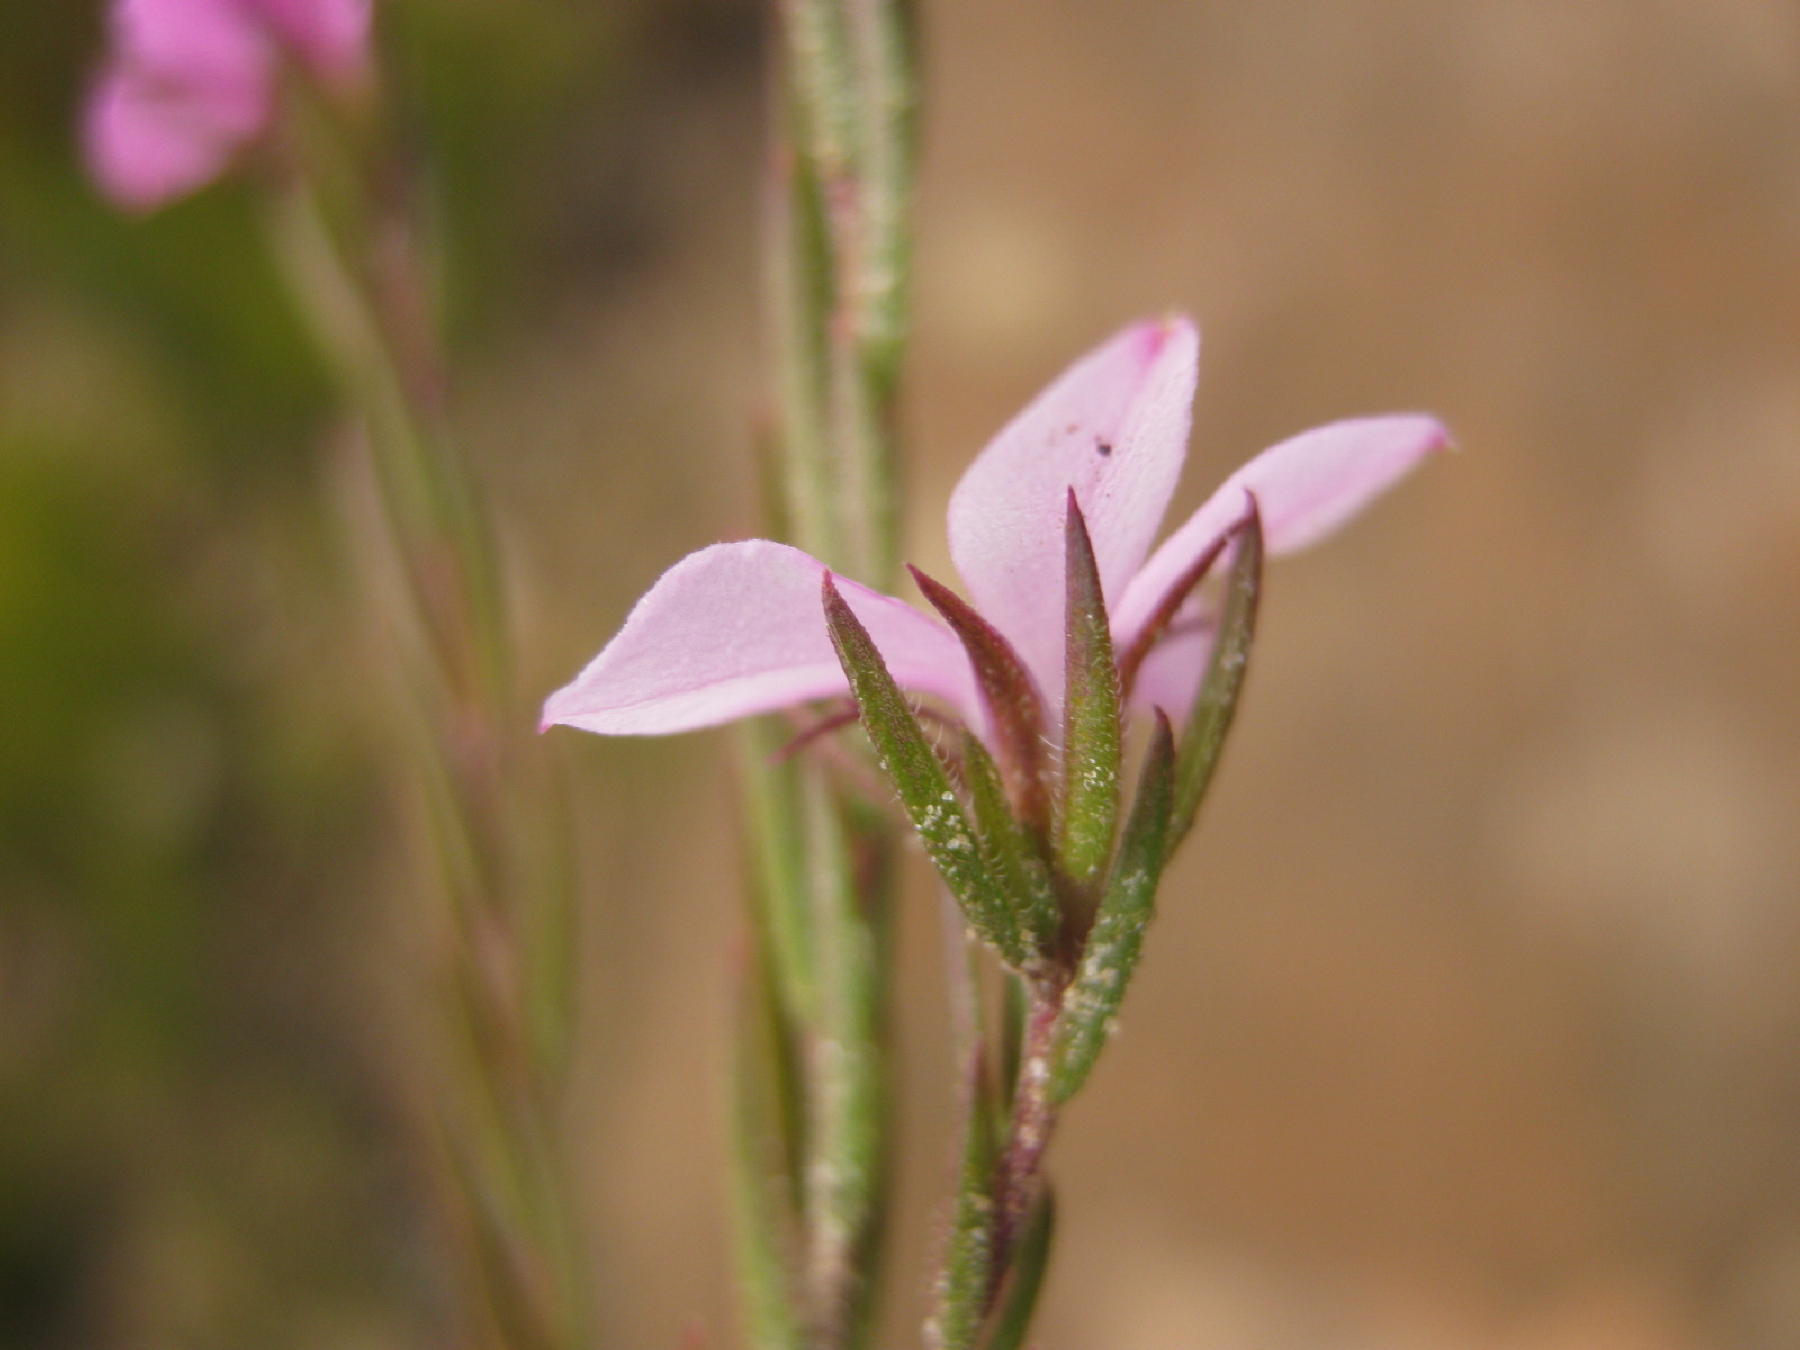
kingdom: Plantae
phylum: Tracheophyta
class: Magnoliopsida
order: Sapindales
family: Rutaceae
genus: Acmadenia
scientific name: Acmadenia gracilis
